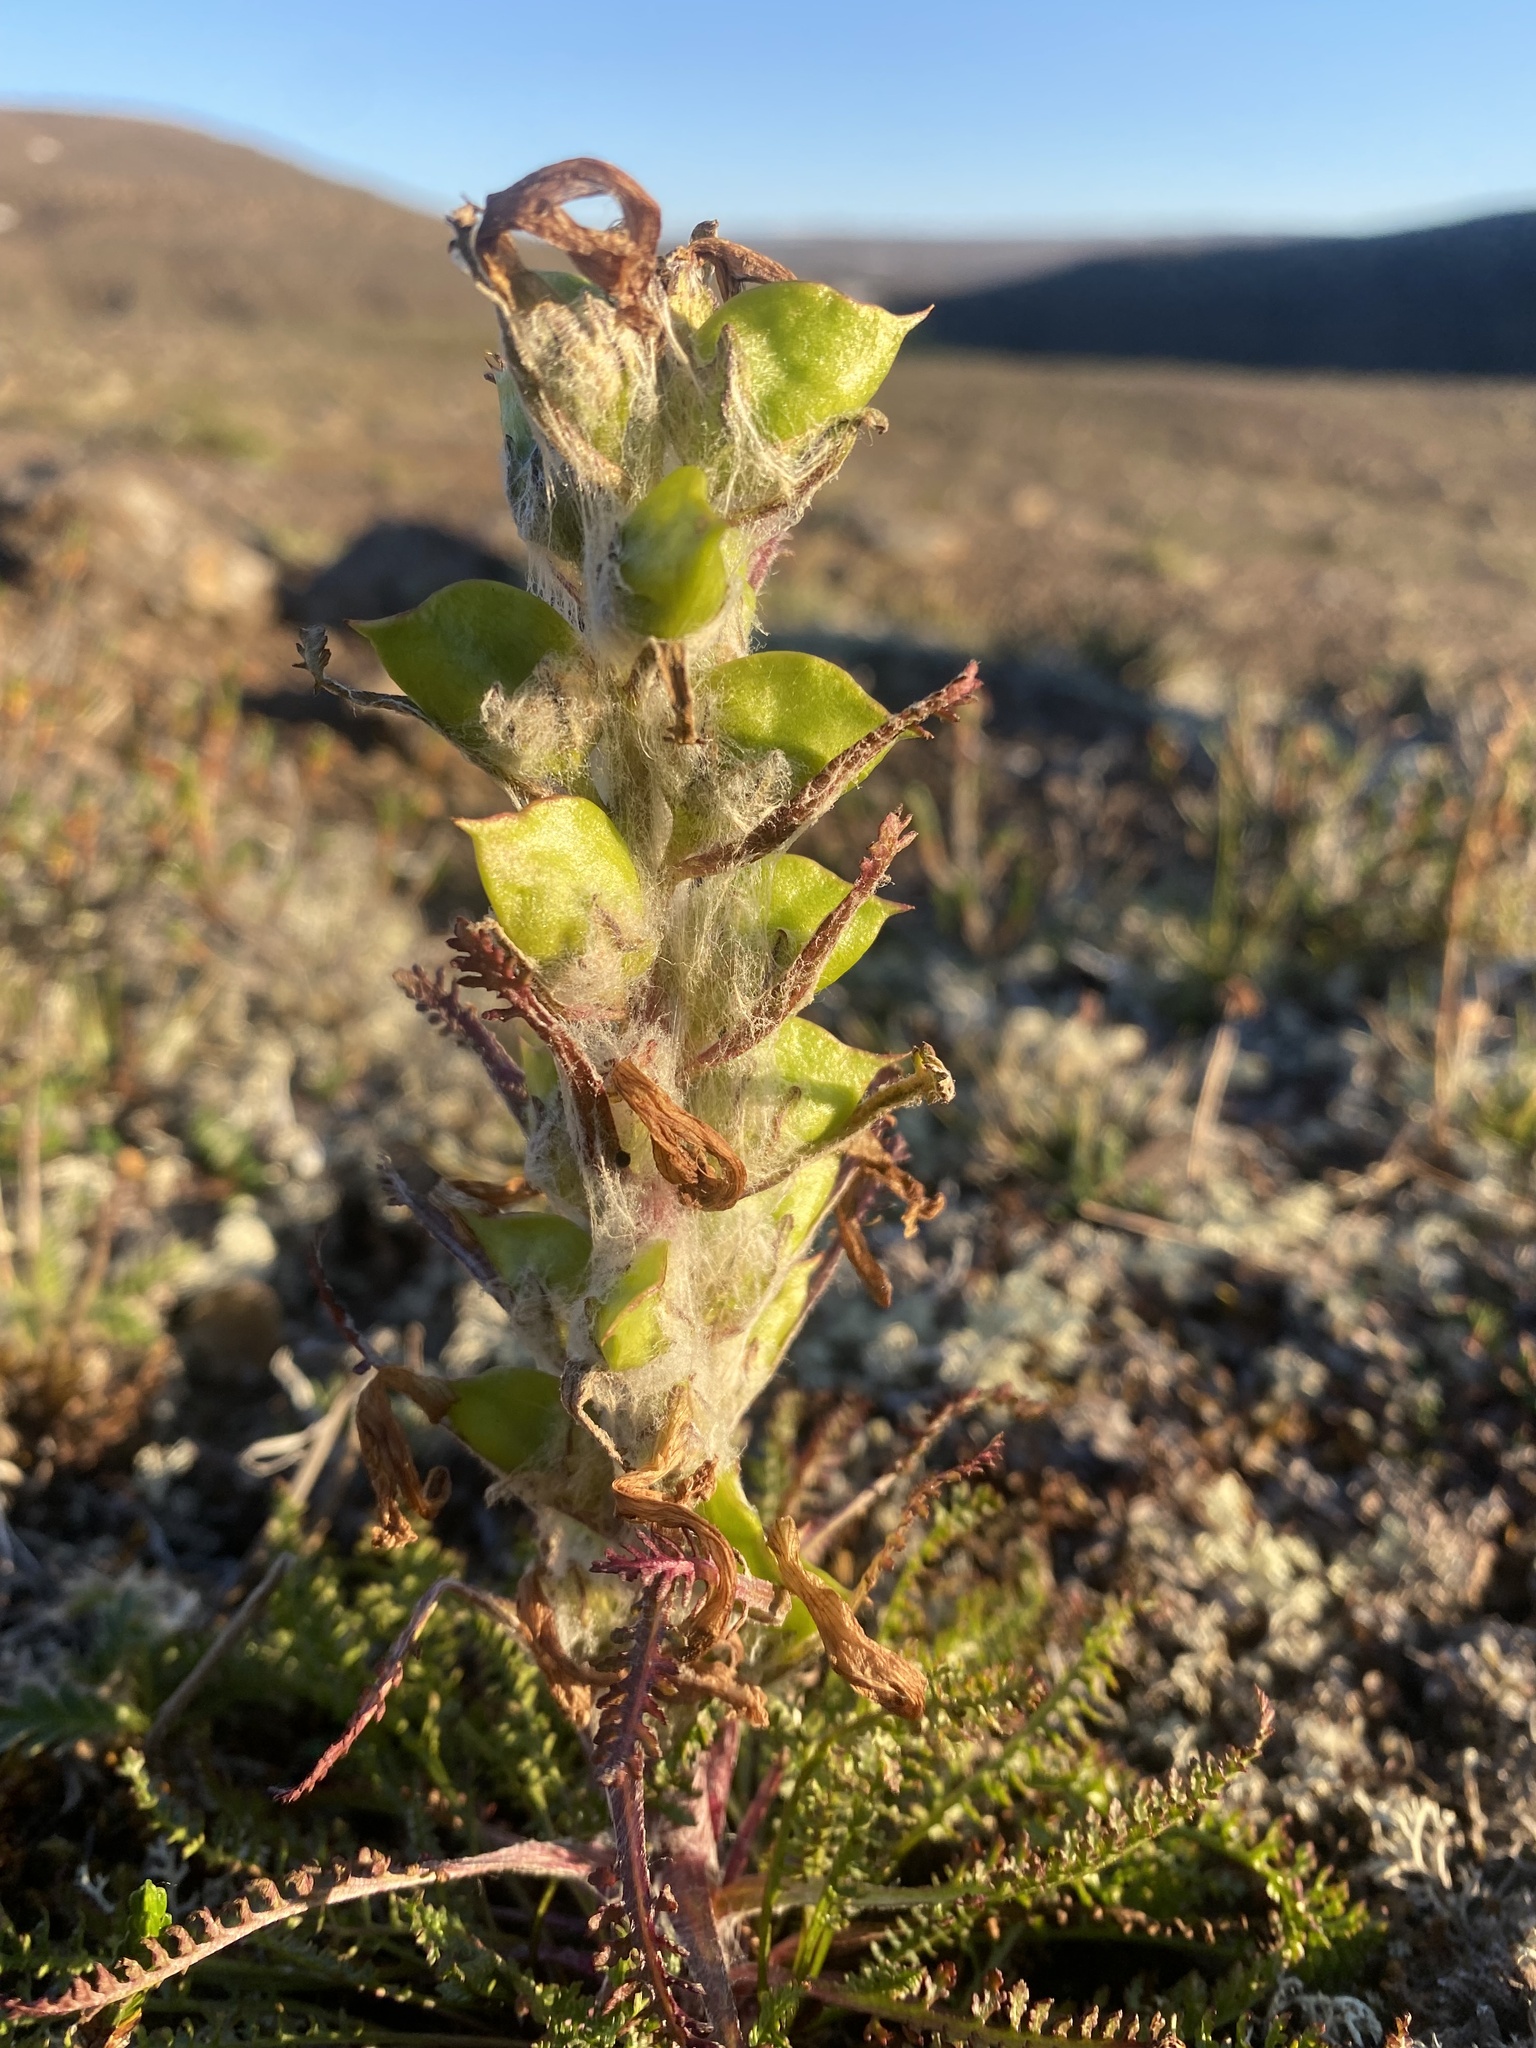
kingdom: Plantae
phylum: Tracheophyta
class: Magnoliopsida
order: Lamiales
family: Orobanchaceae
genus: Pedicularis
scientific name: Pedicularis alopecuroides
